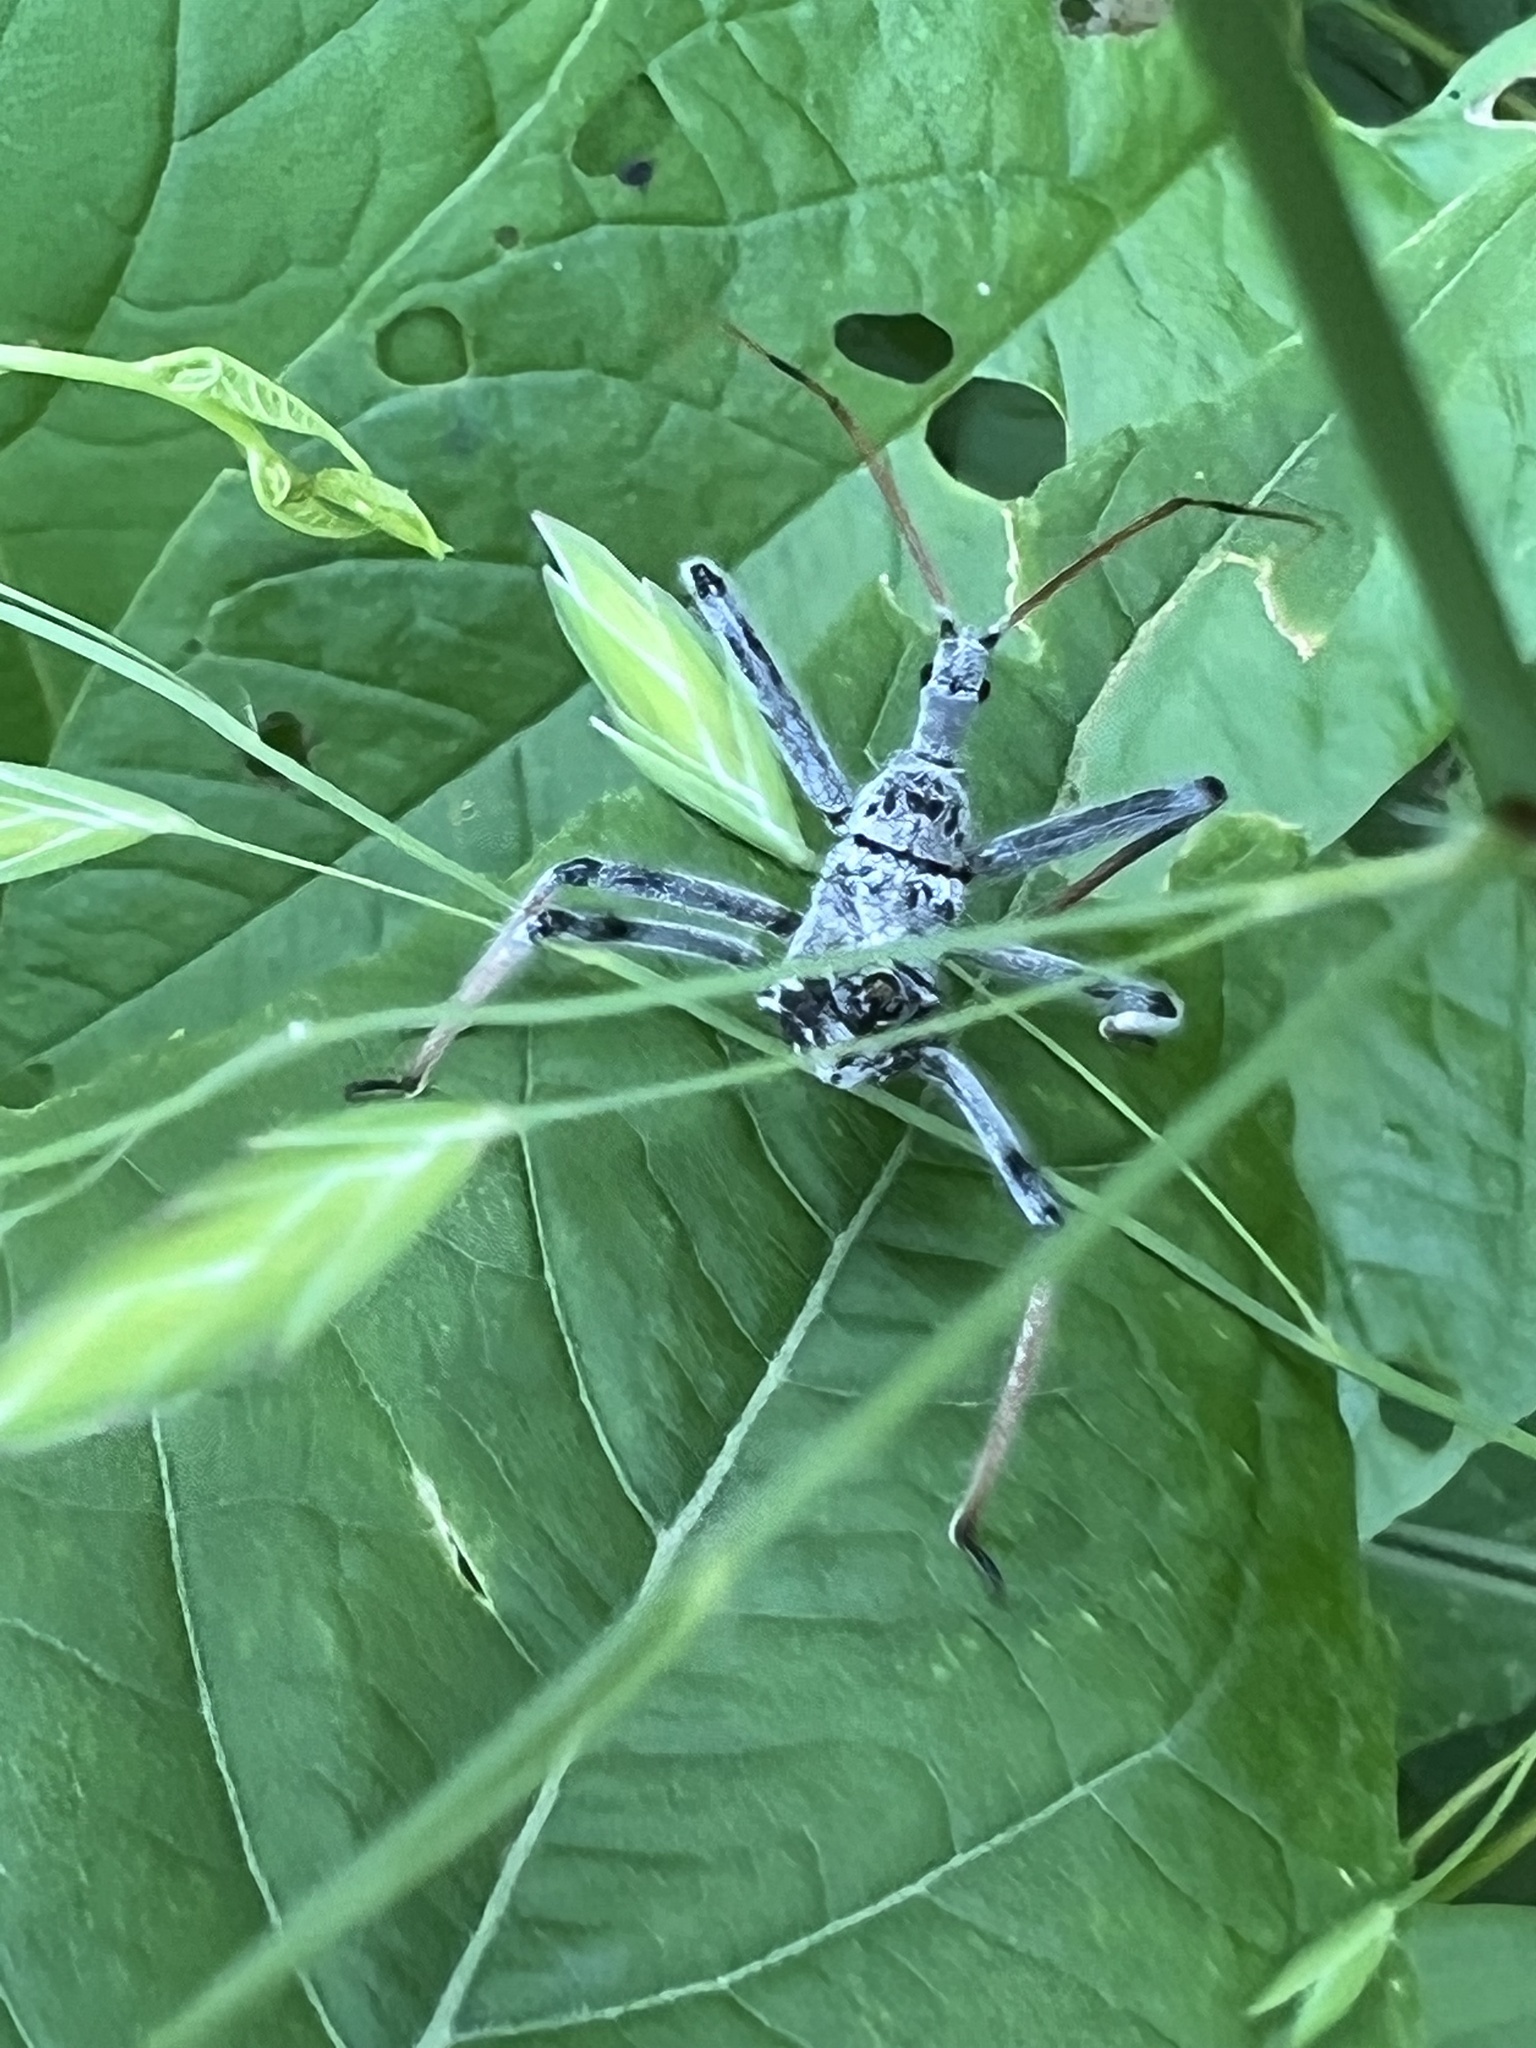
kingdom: Animalia
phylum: Arthropoda
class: Insecta
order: Hemiptera
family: Reduviidae
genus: Arilus
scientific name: Arilus cristatus
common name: North american wheel bug
